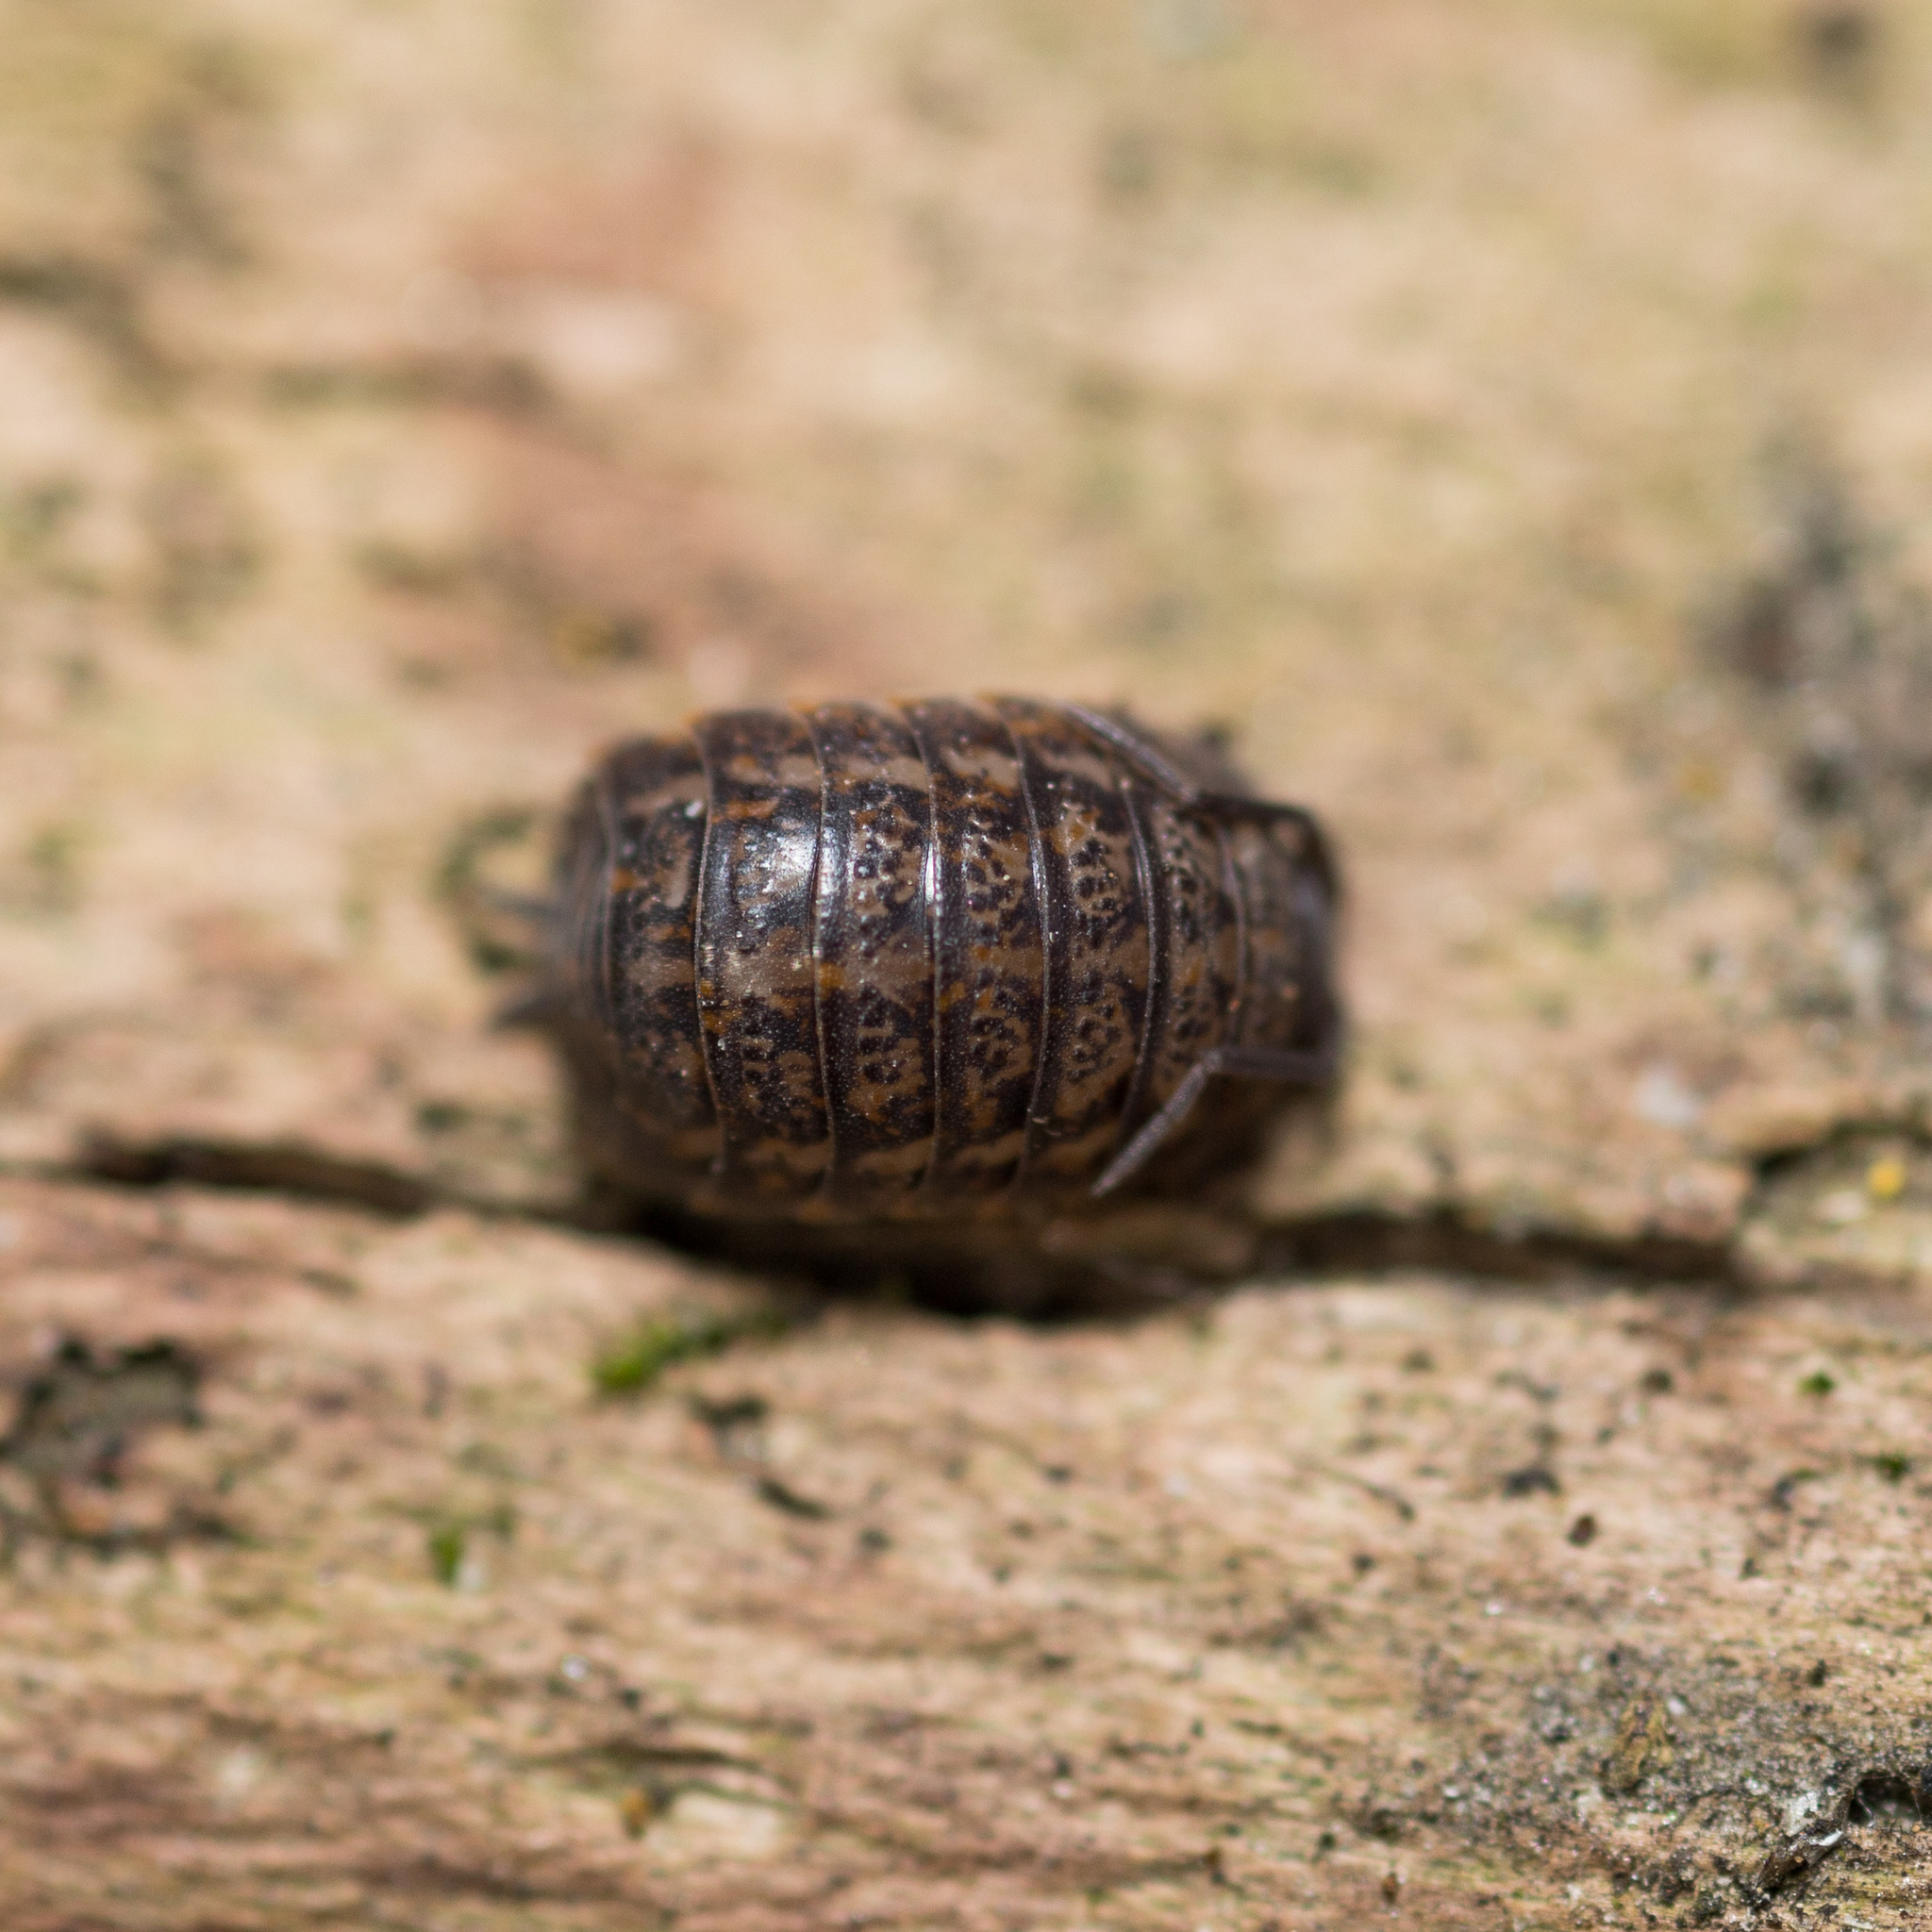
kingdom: Animalia
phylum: Arthropoda
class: Malacostraca
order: Isopoda
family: Trachelipodidae
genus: Trachelipus
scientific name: Trachelipus rathkii
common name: Isopod
